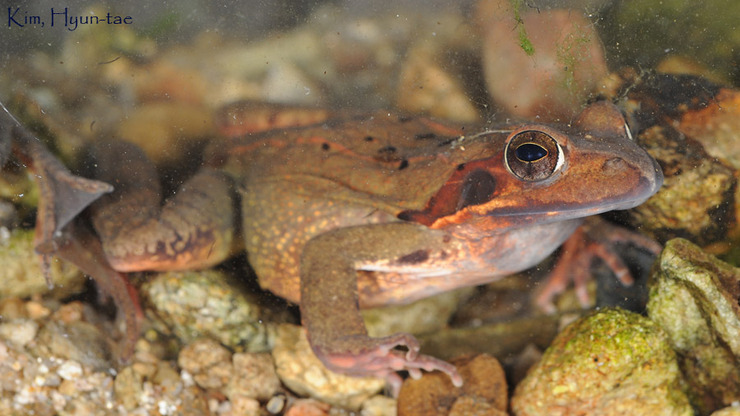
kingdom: Animalia
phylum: Chordata
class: Amphibia
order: Anura
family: Ranidae
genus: Rana
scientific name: Rana uenoi
